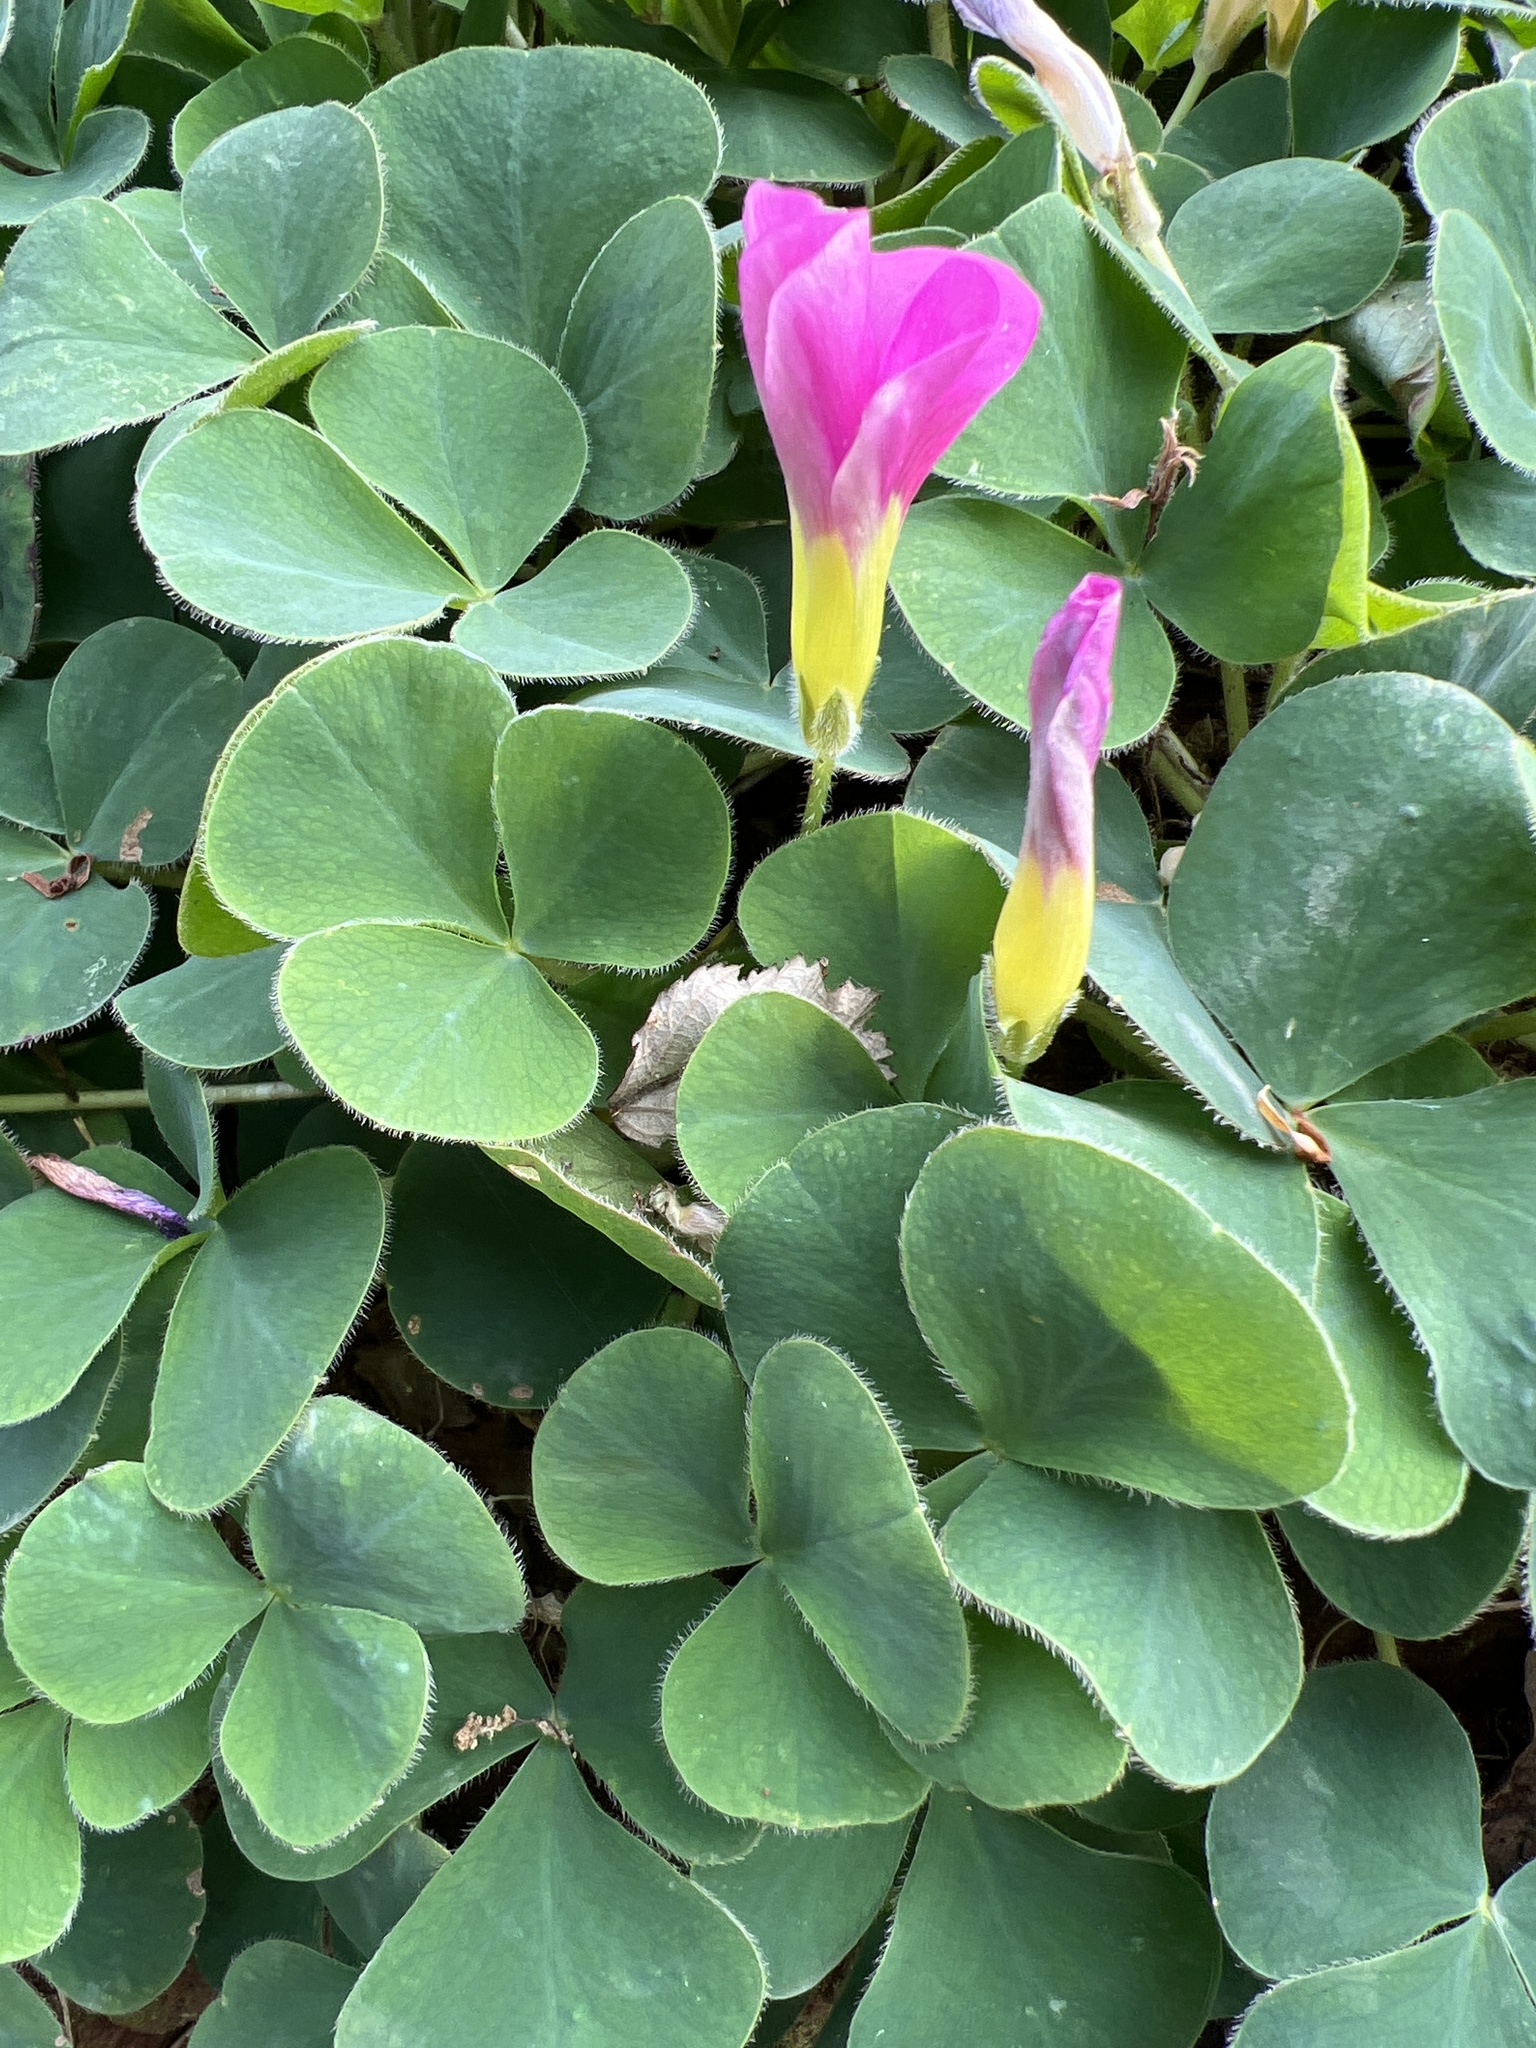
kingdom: Plantae
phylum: Tracheophyta
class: Magnoliopsida
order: Oxalidales
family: Oxalidaceae
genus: Oxalis
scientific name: Oxalis purpurea
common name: Purple woodsorrel
